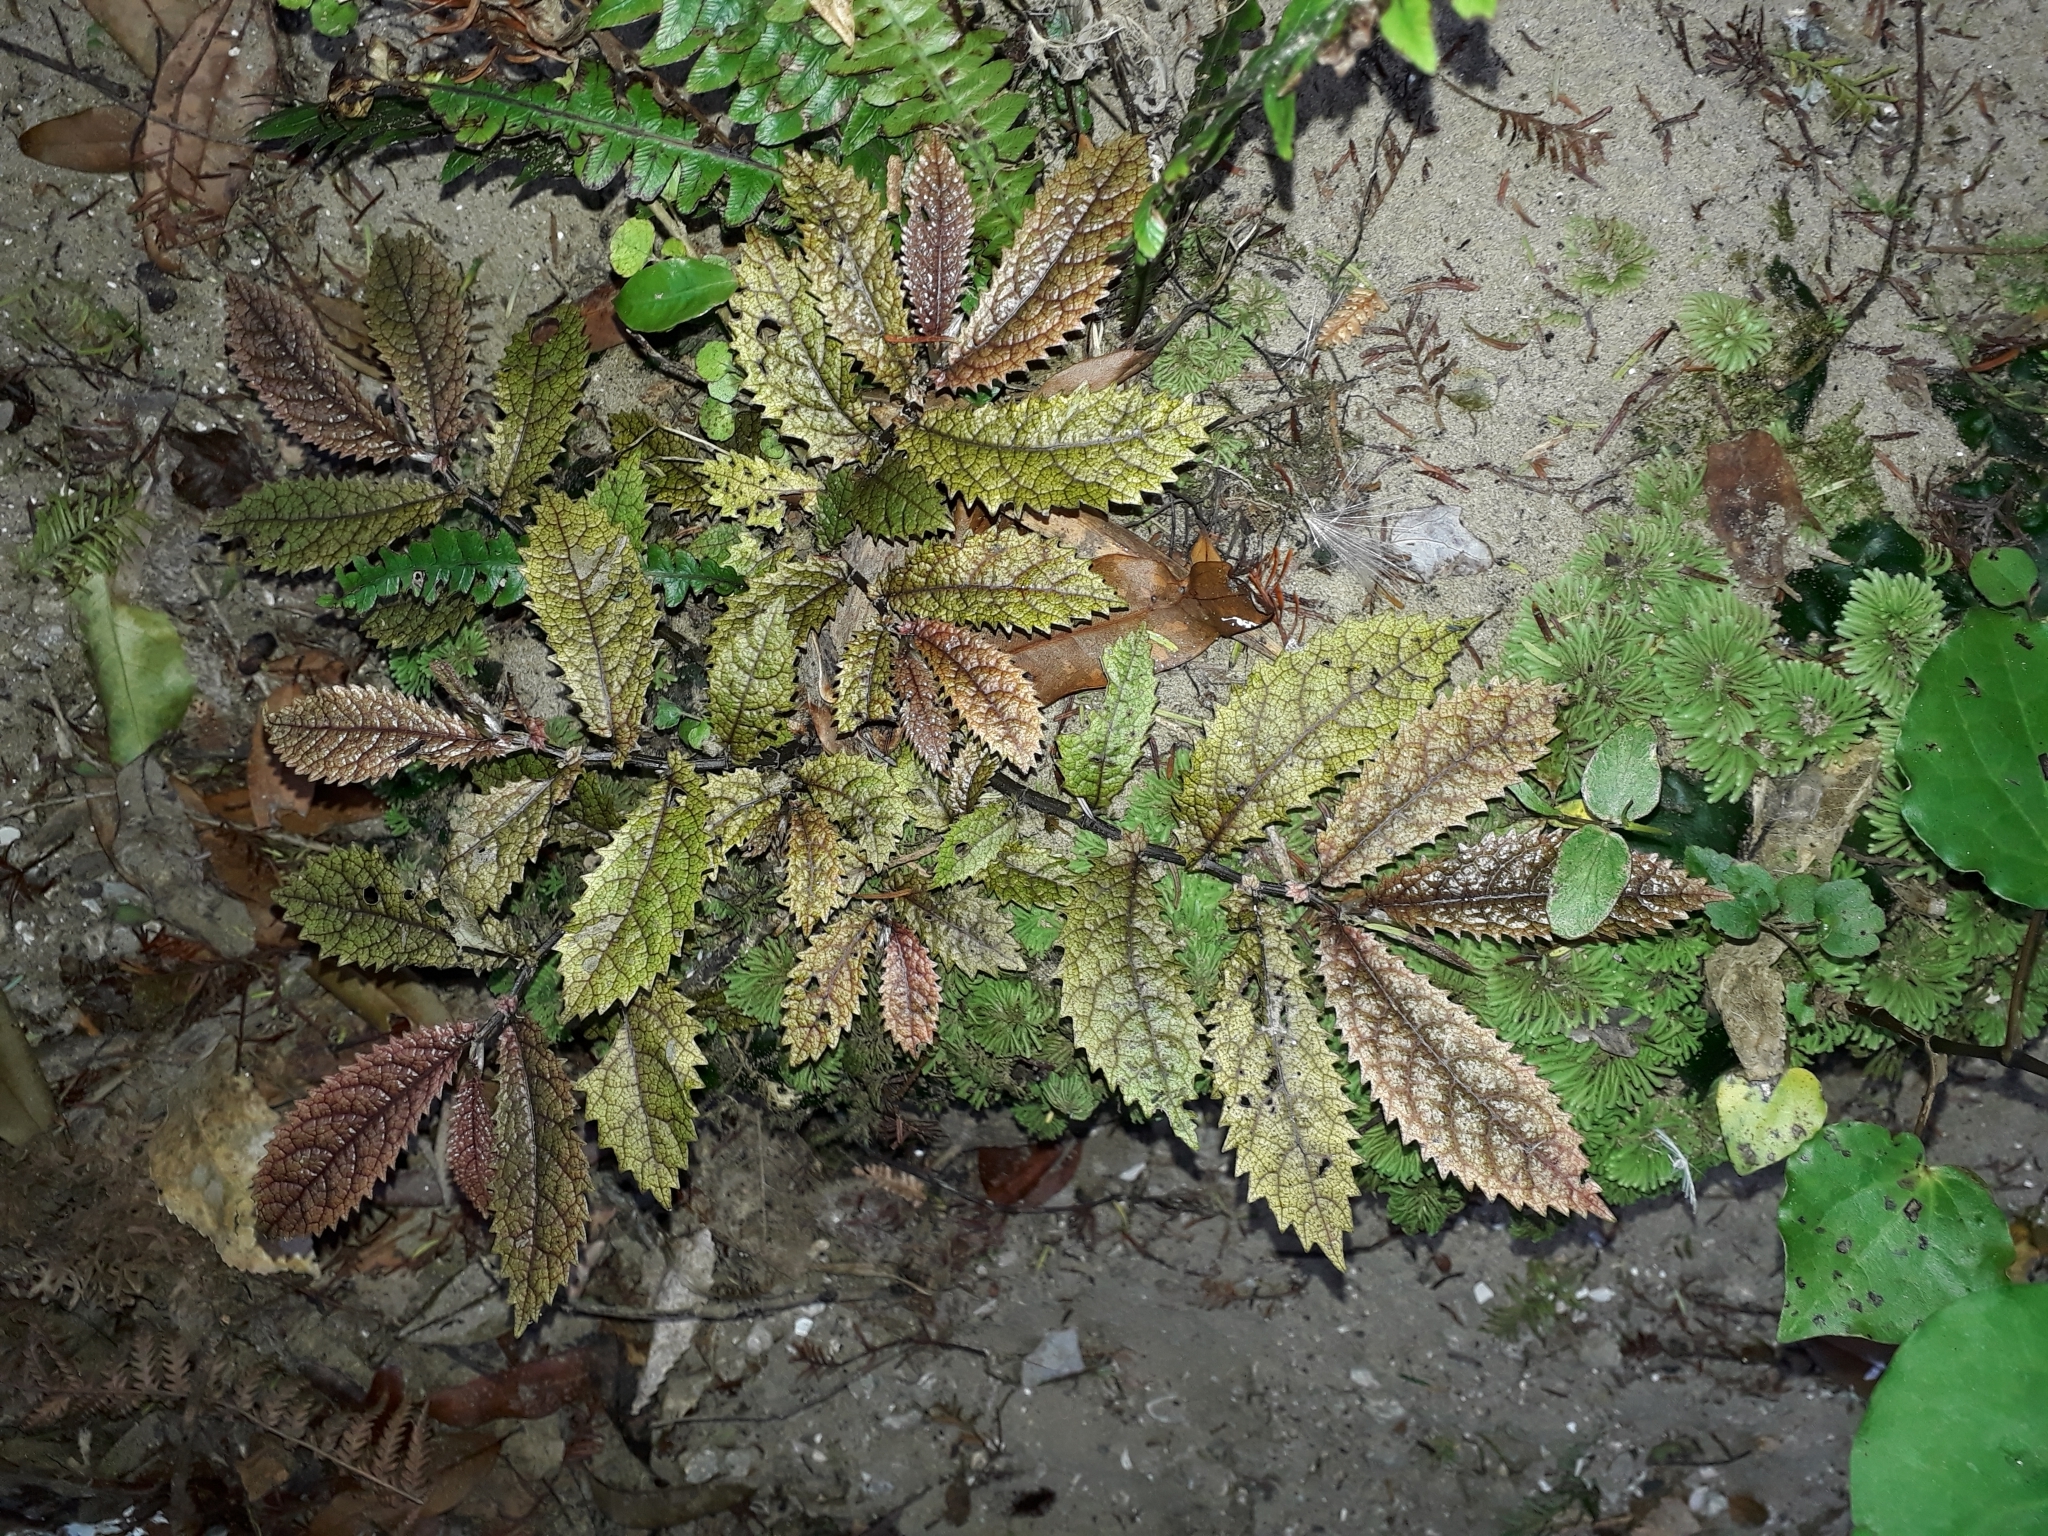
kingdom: Plantae
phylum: Tracheophyta
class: Magnoliopsida
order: Rosales
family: Urticaceae
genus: Elatostema
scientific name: Elatostema rugosum
